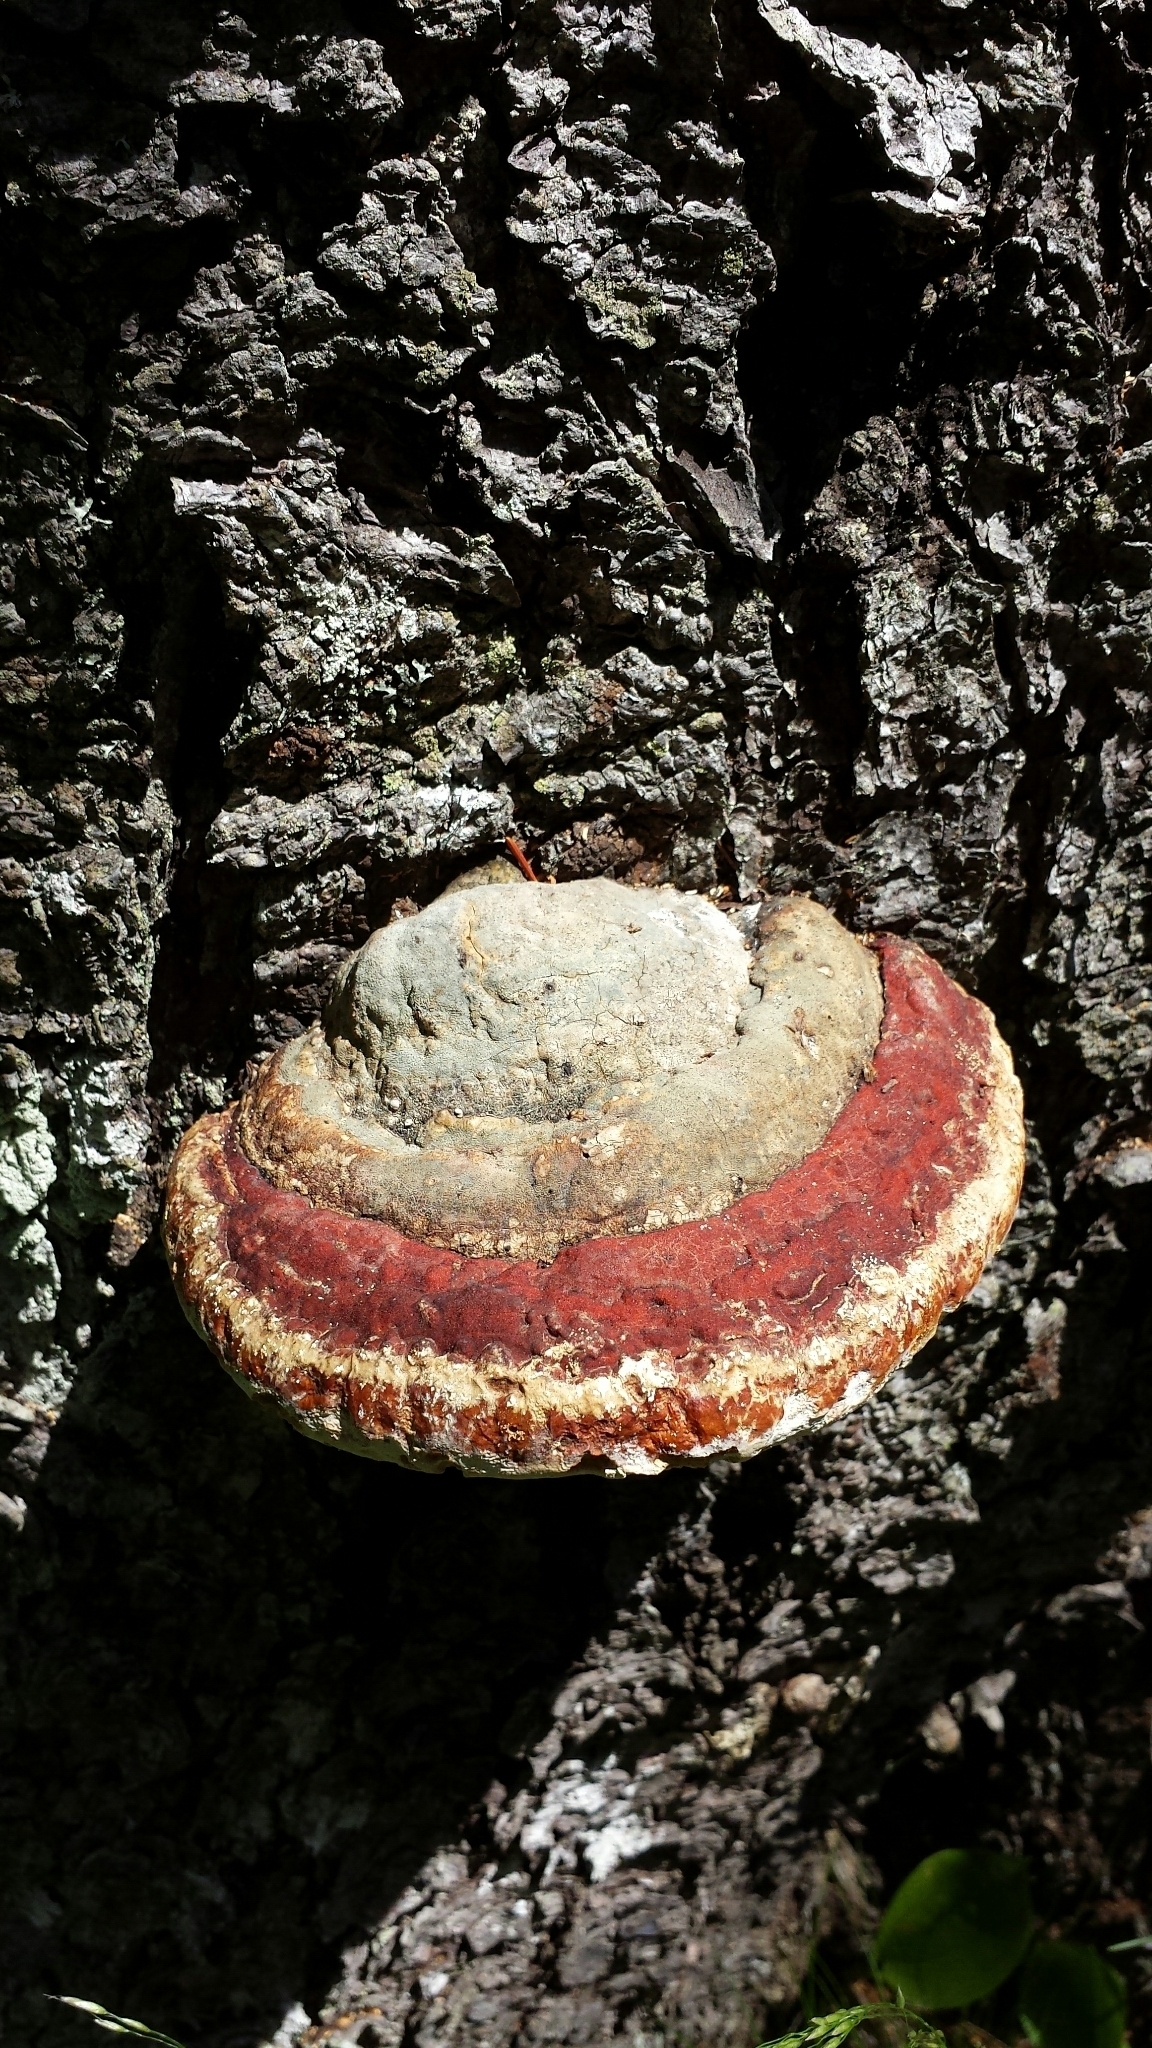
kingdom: Fungi
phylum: Basidiomycota
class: Agaricomycetes
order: Polyporales
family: Fomitopsidaceae
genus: Fomitopsis
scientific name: Fomitopsis mounceae
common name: Northern red belt
